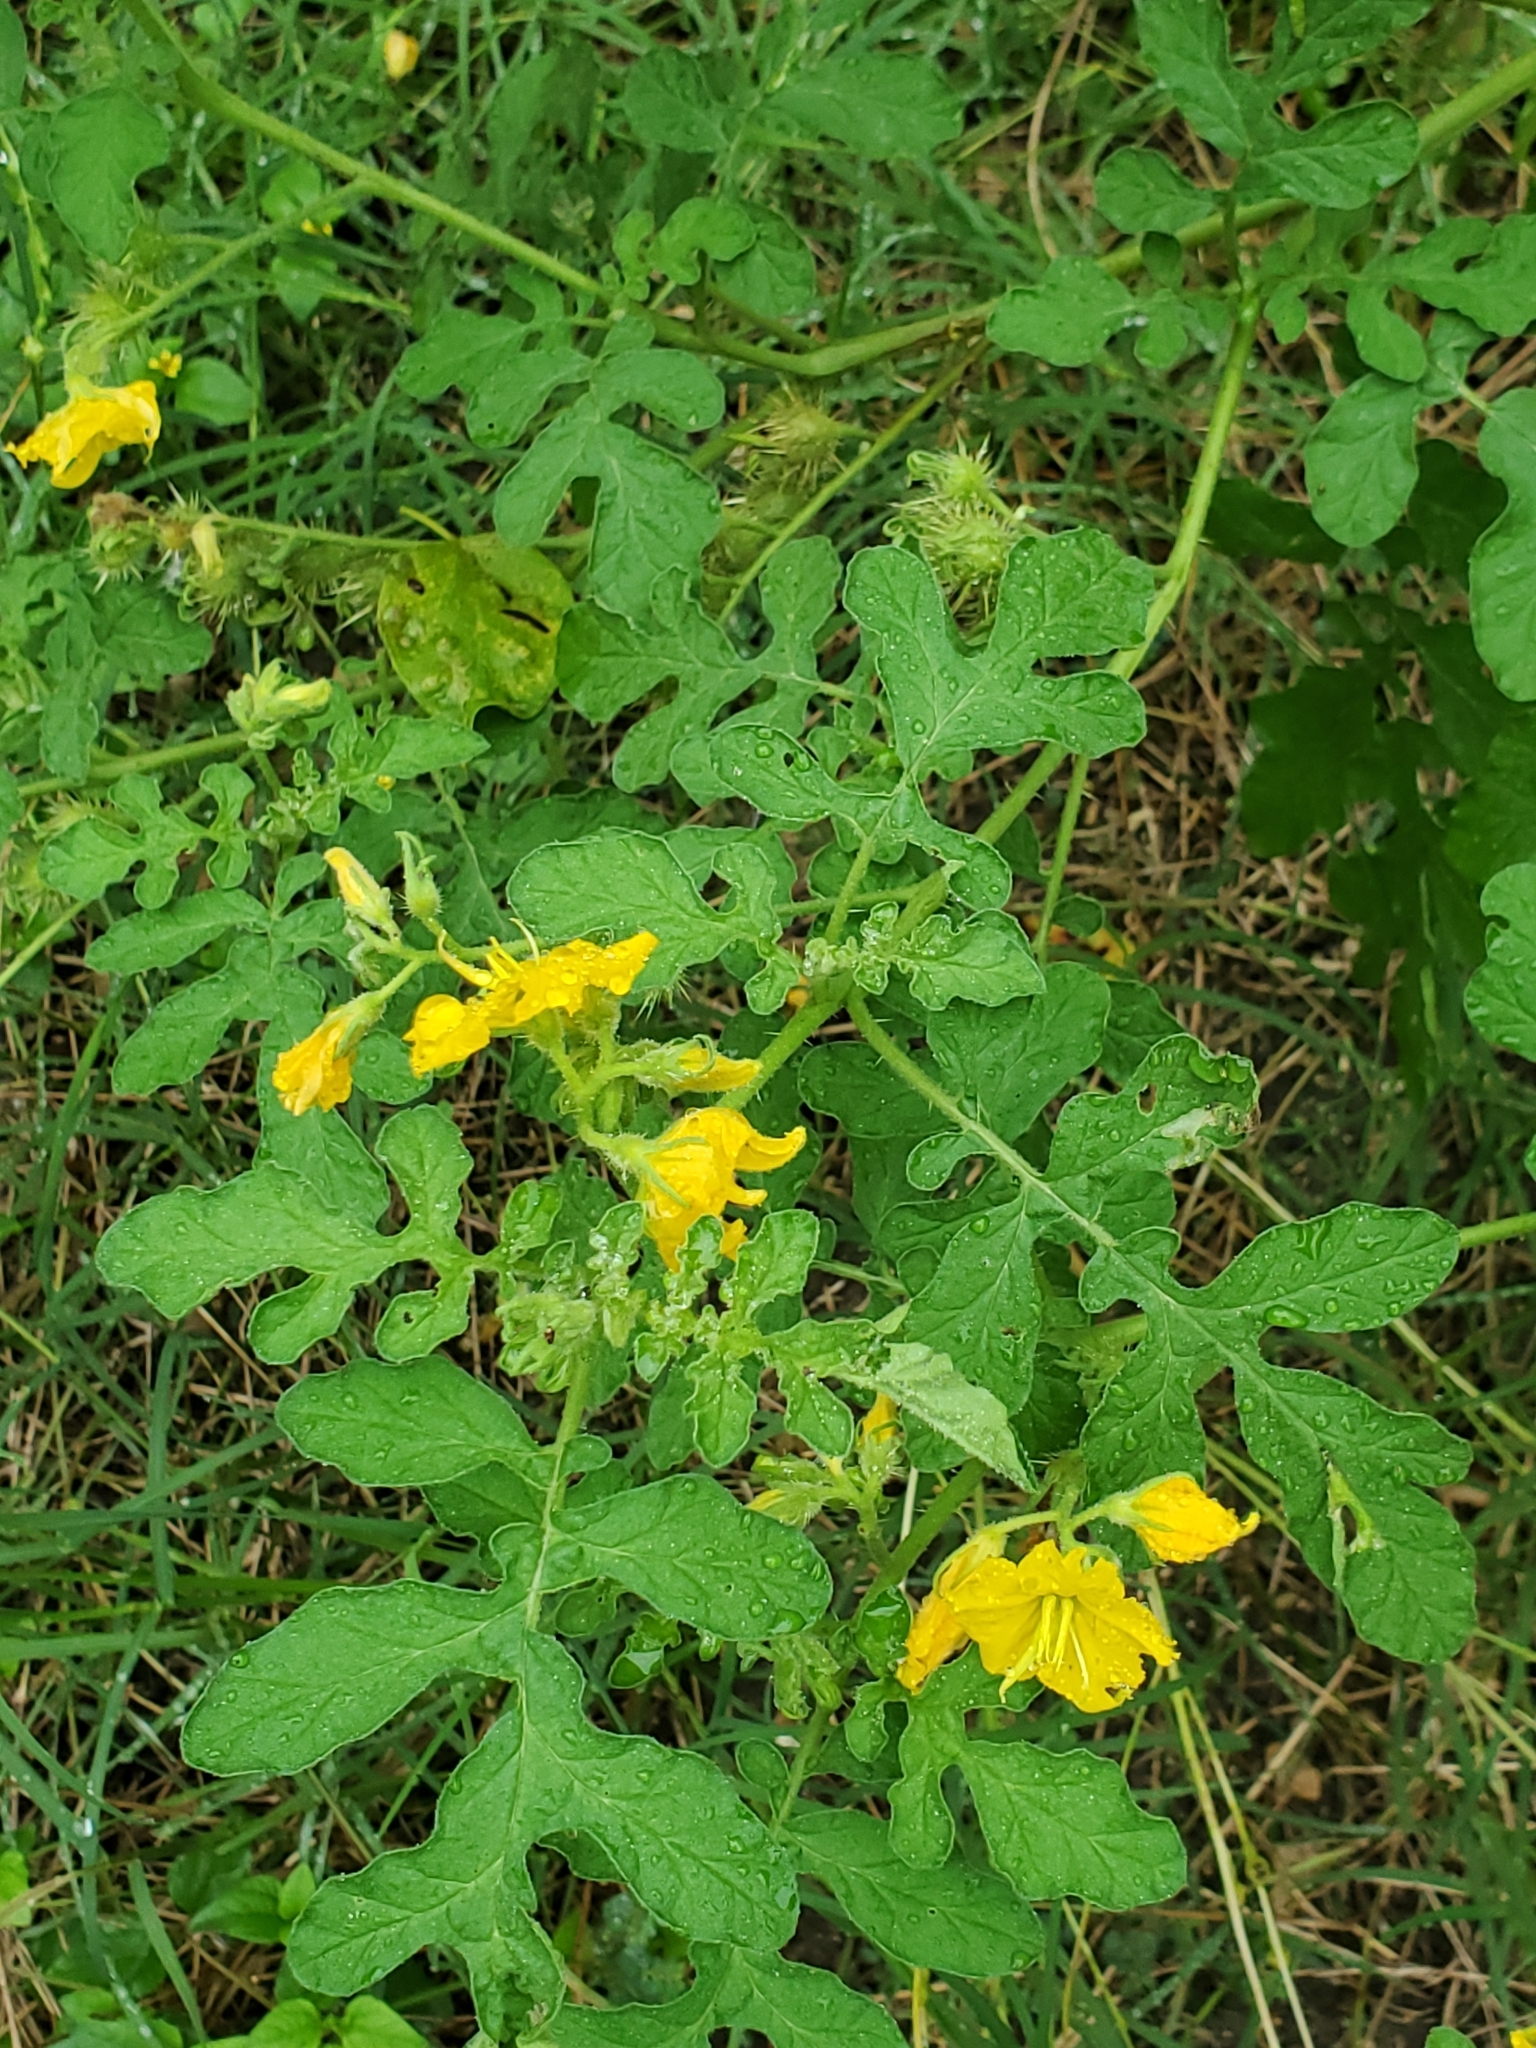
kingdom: Plantae
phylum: Tracheophyta
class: Magnoliopsida
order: Solanales
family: Solanaceae
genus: Solanum
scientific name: Solanum angustifolium
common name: Buffalobur nightshade
